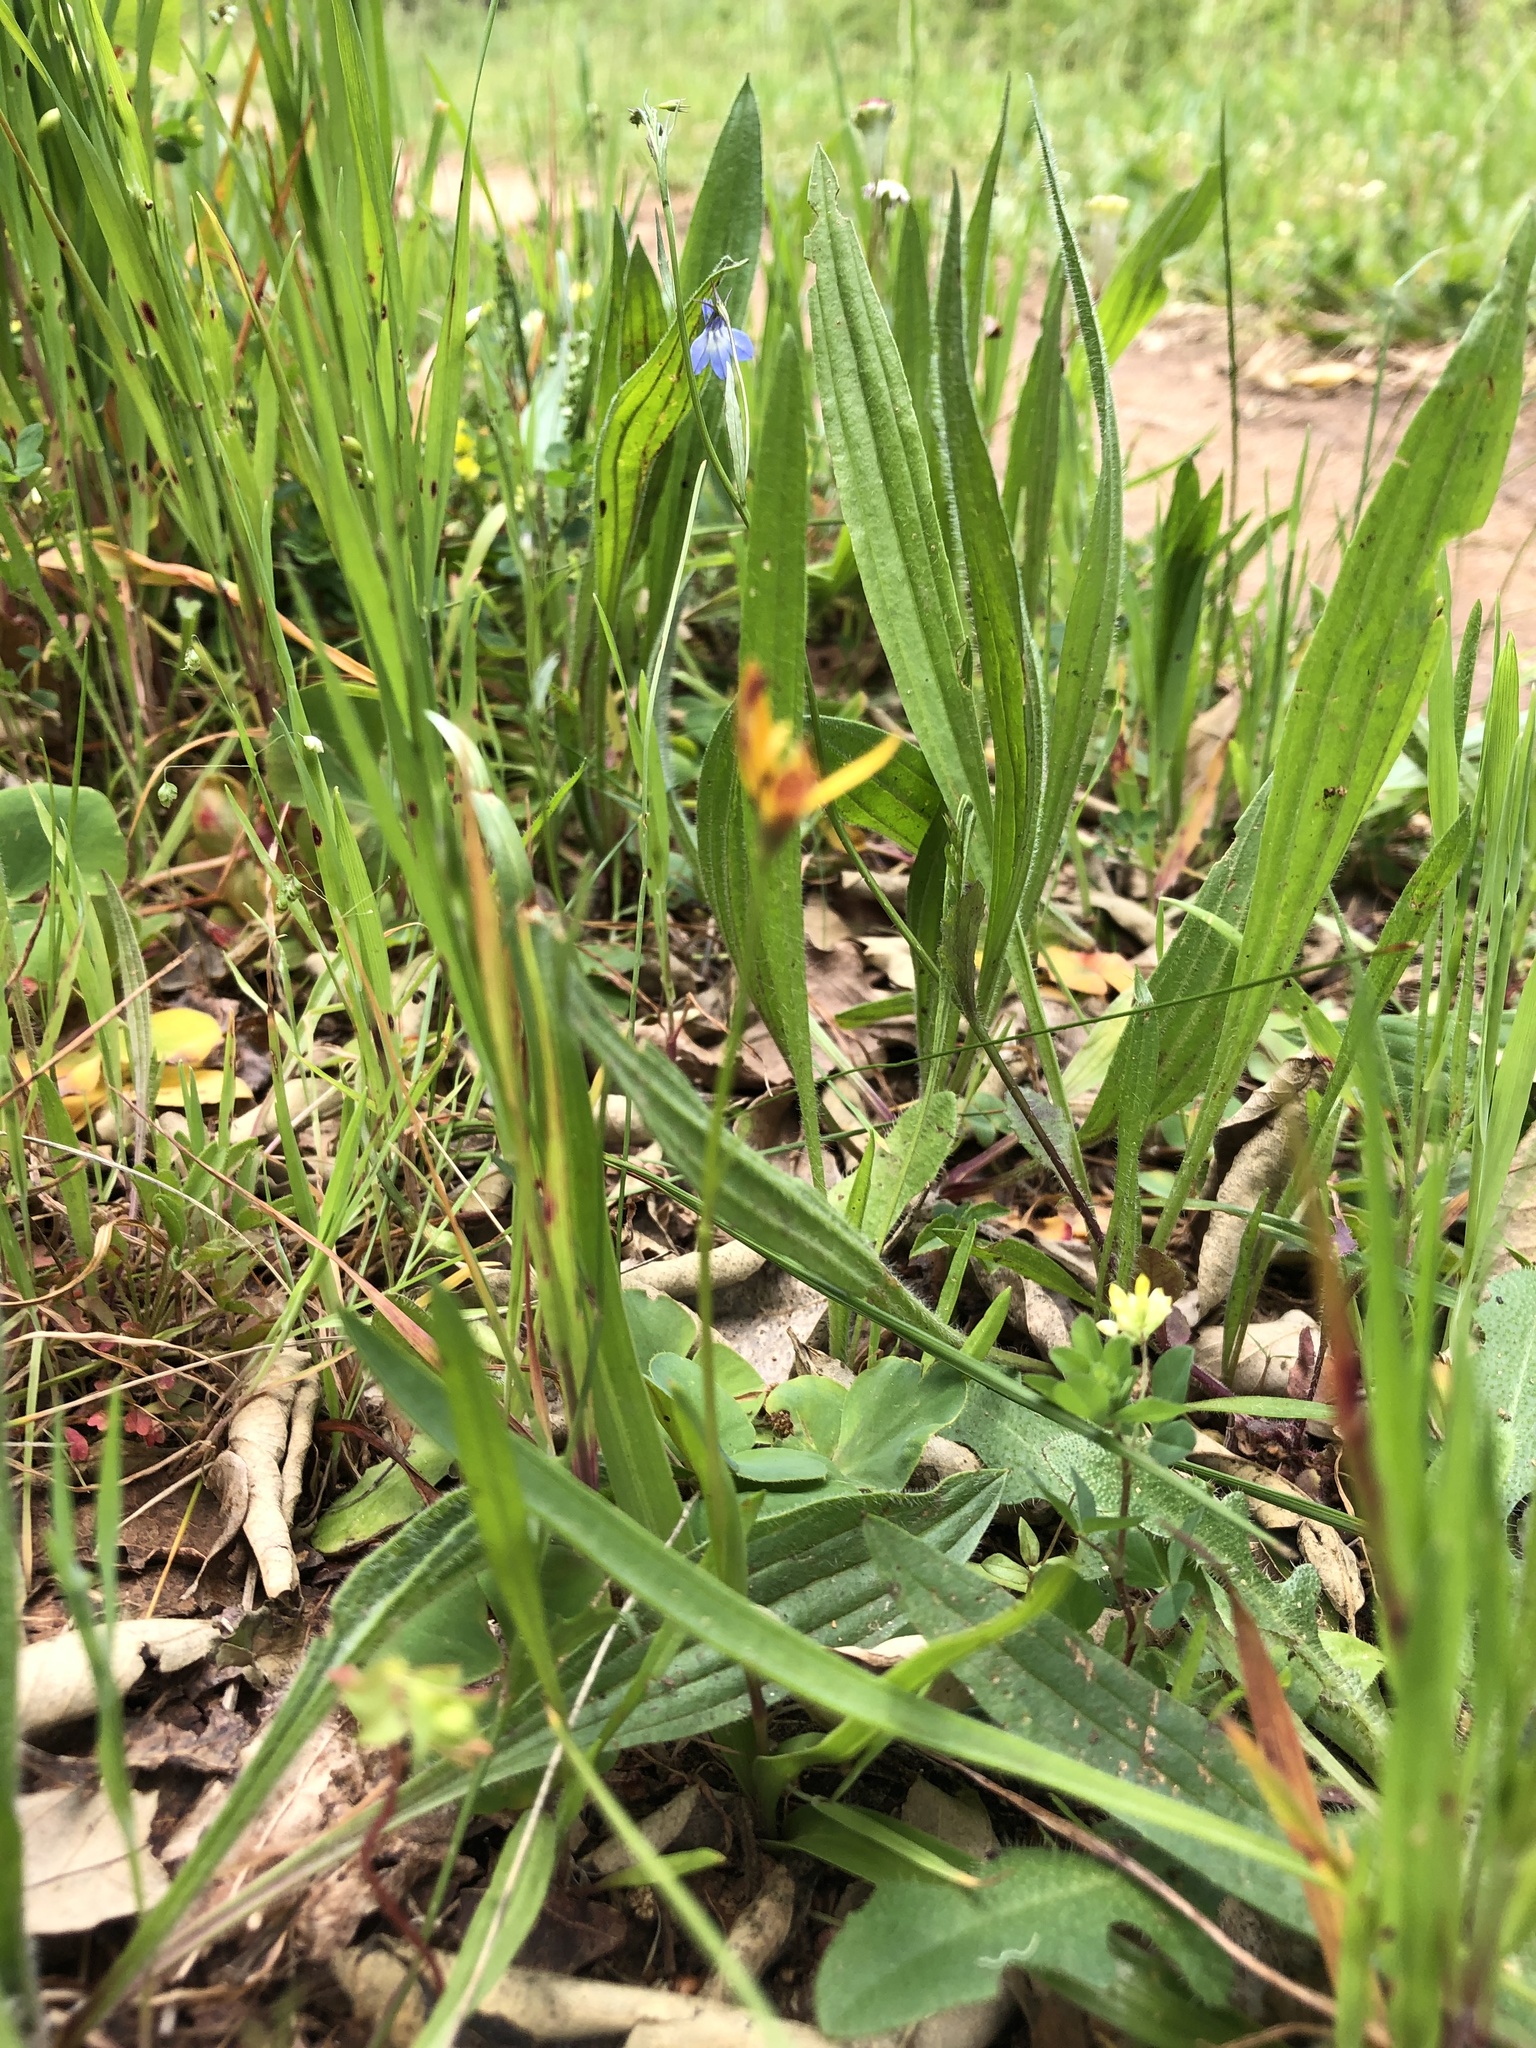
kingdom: Plantae
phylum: Tracheophyta
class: Liliopsida
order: Liliales
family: Colchicaceae
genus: Baeometra
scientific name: Baeometra uniflora
